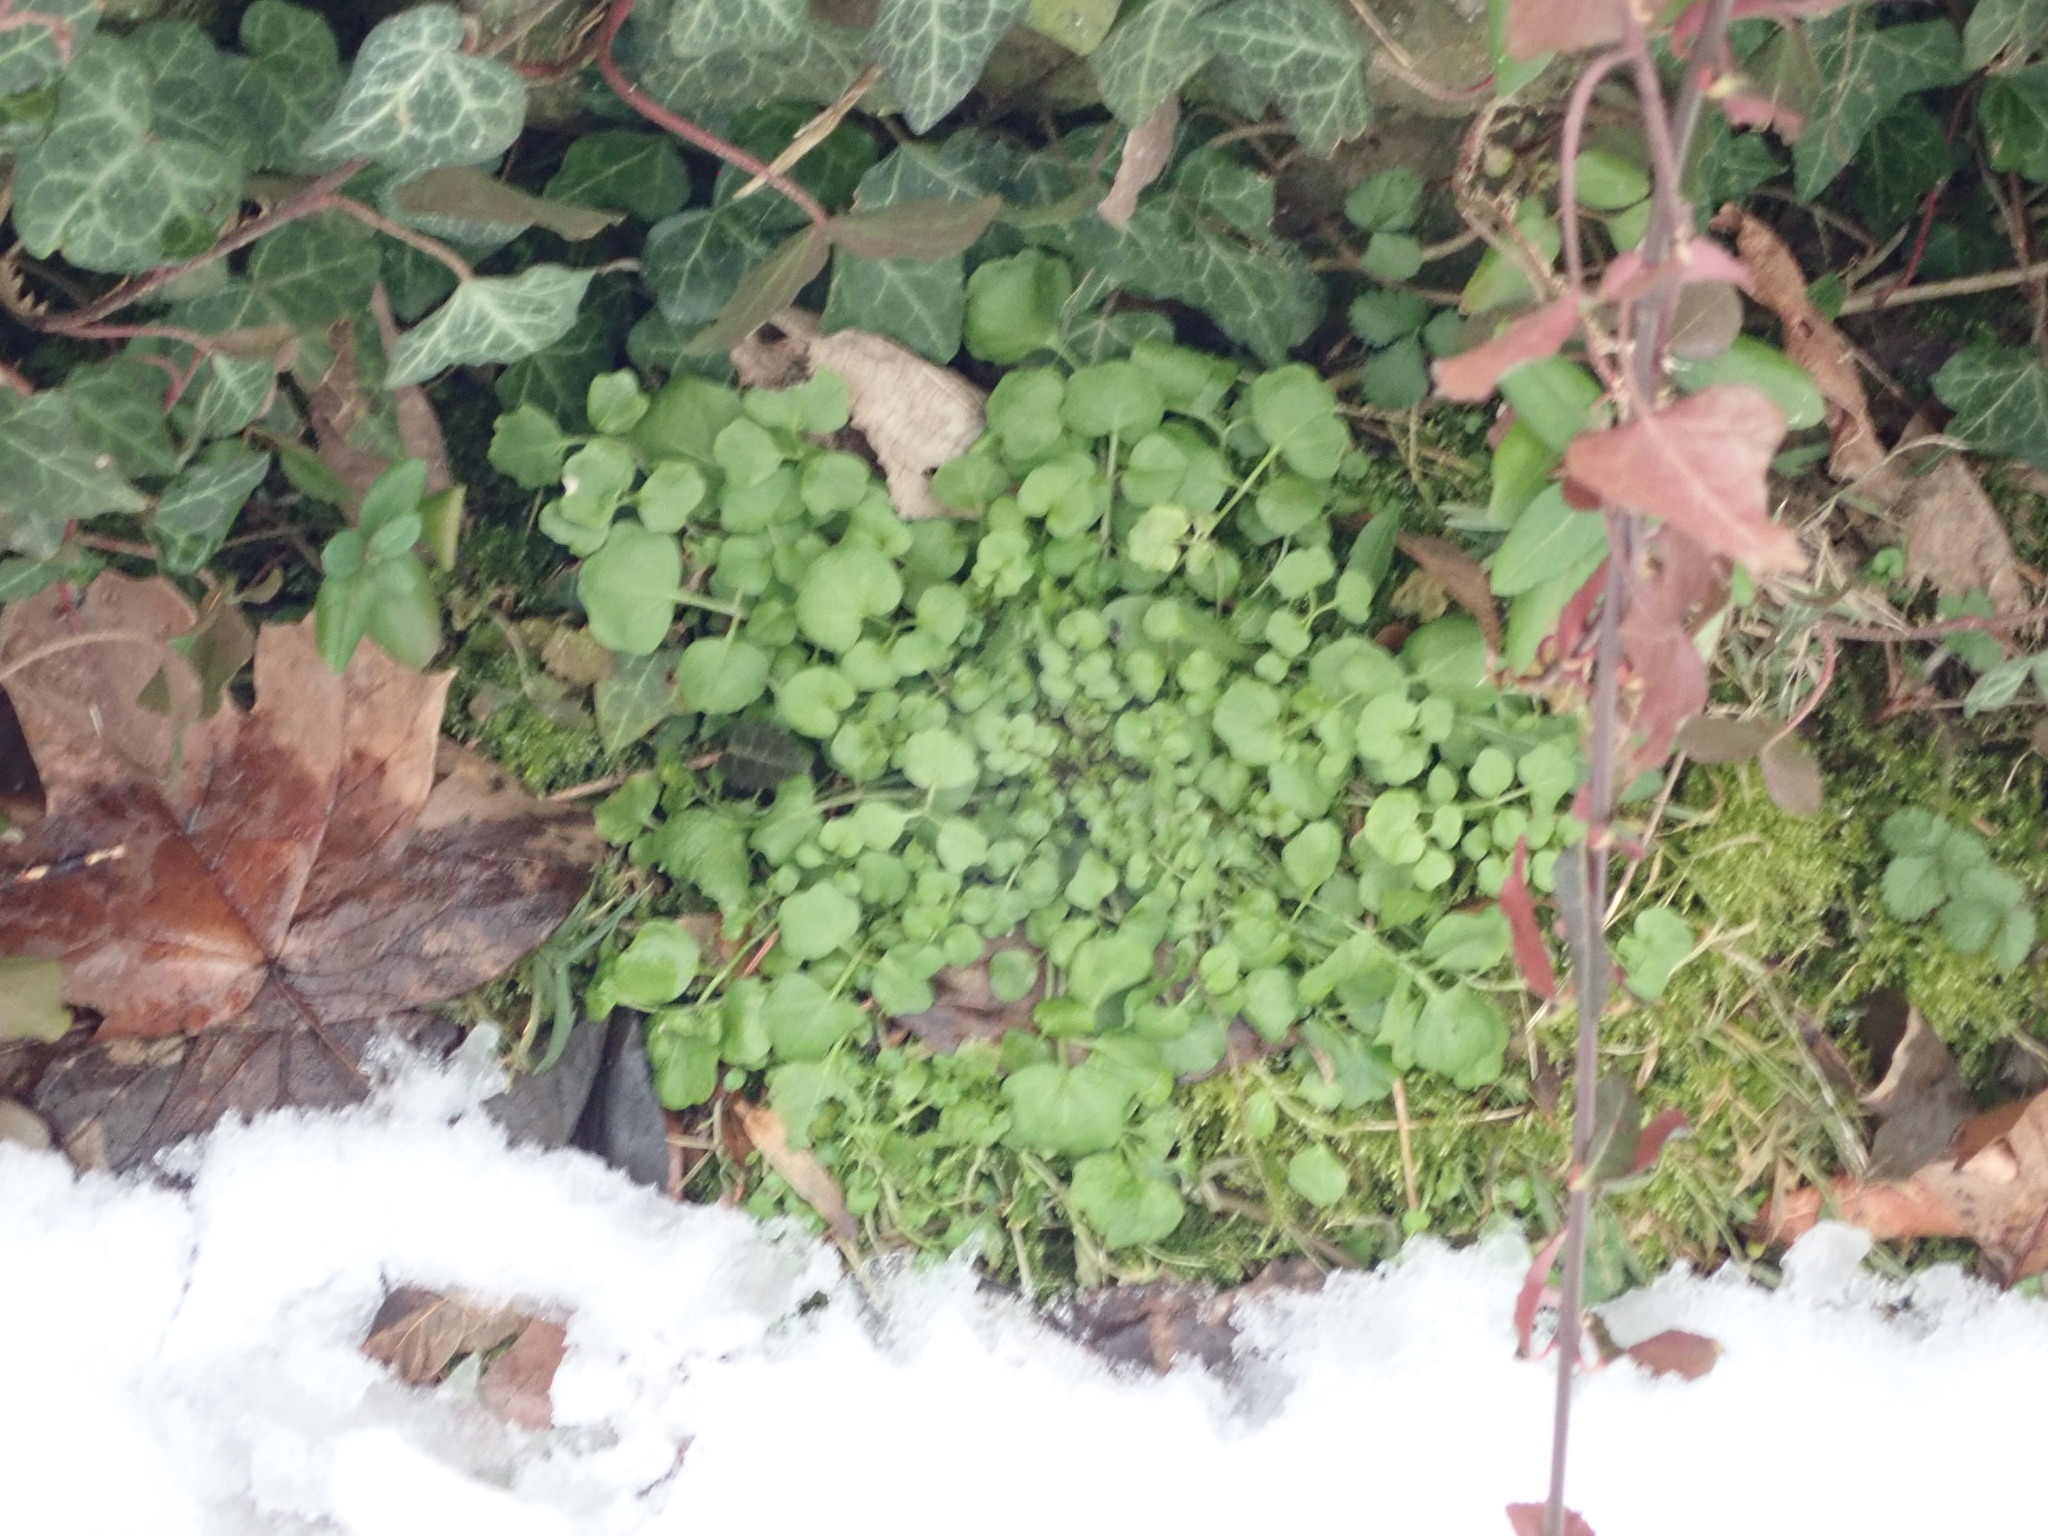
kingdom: Plantae
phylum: Tracheophyta
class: Magnoliopsida
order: Brassicales
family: Brassicaceae
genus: Cardamine
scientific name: Cardamine hirsuta
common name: Hairy bittercress
